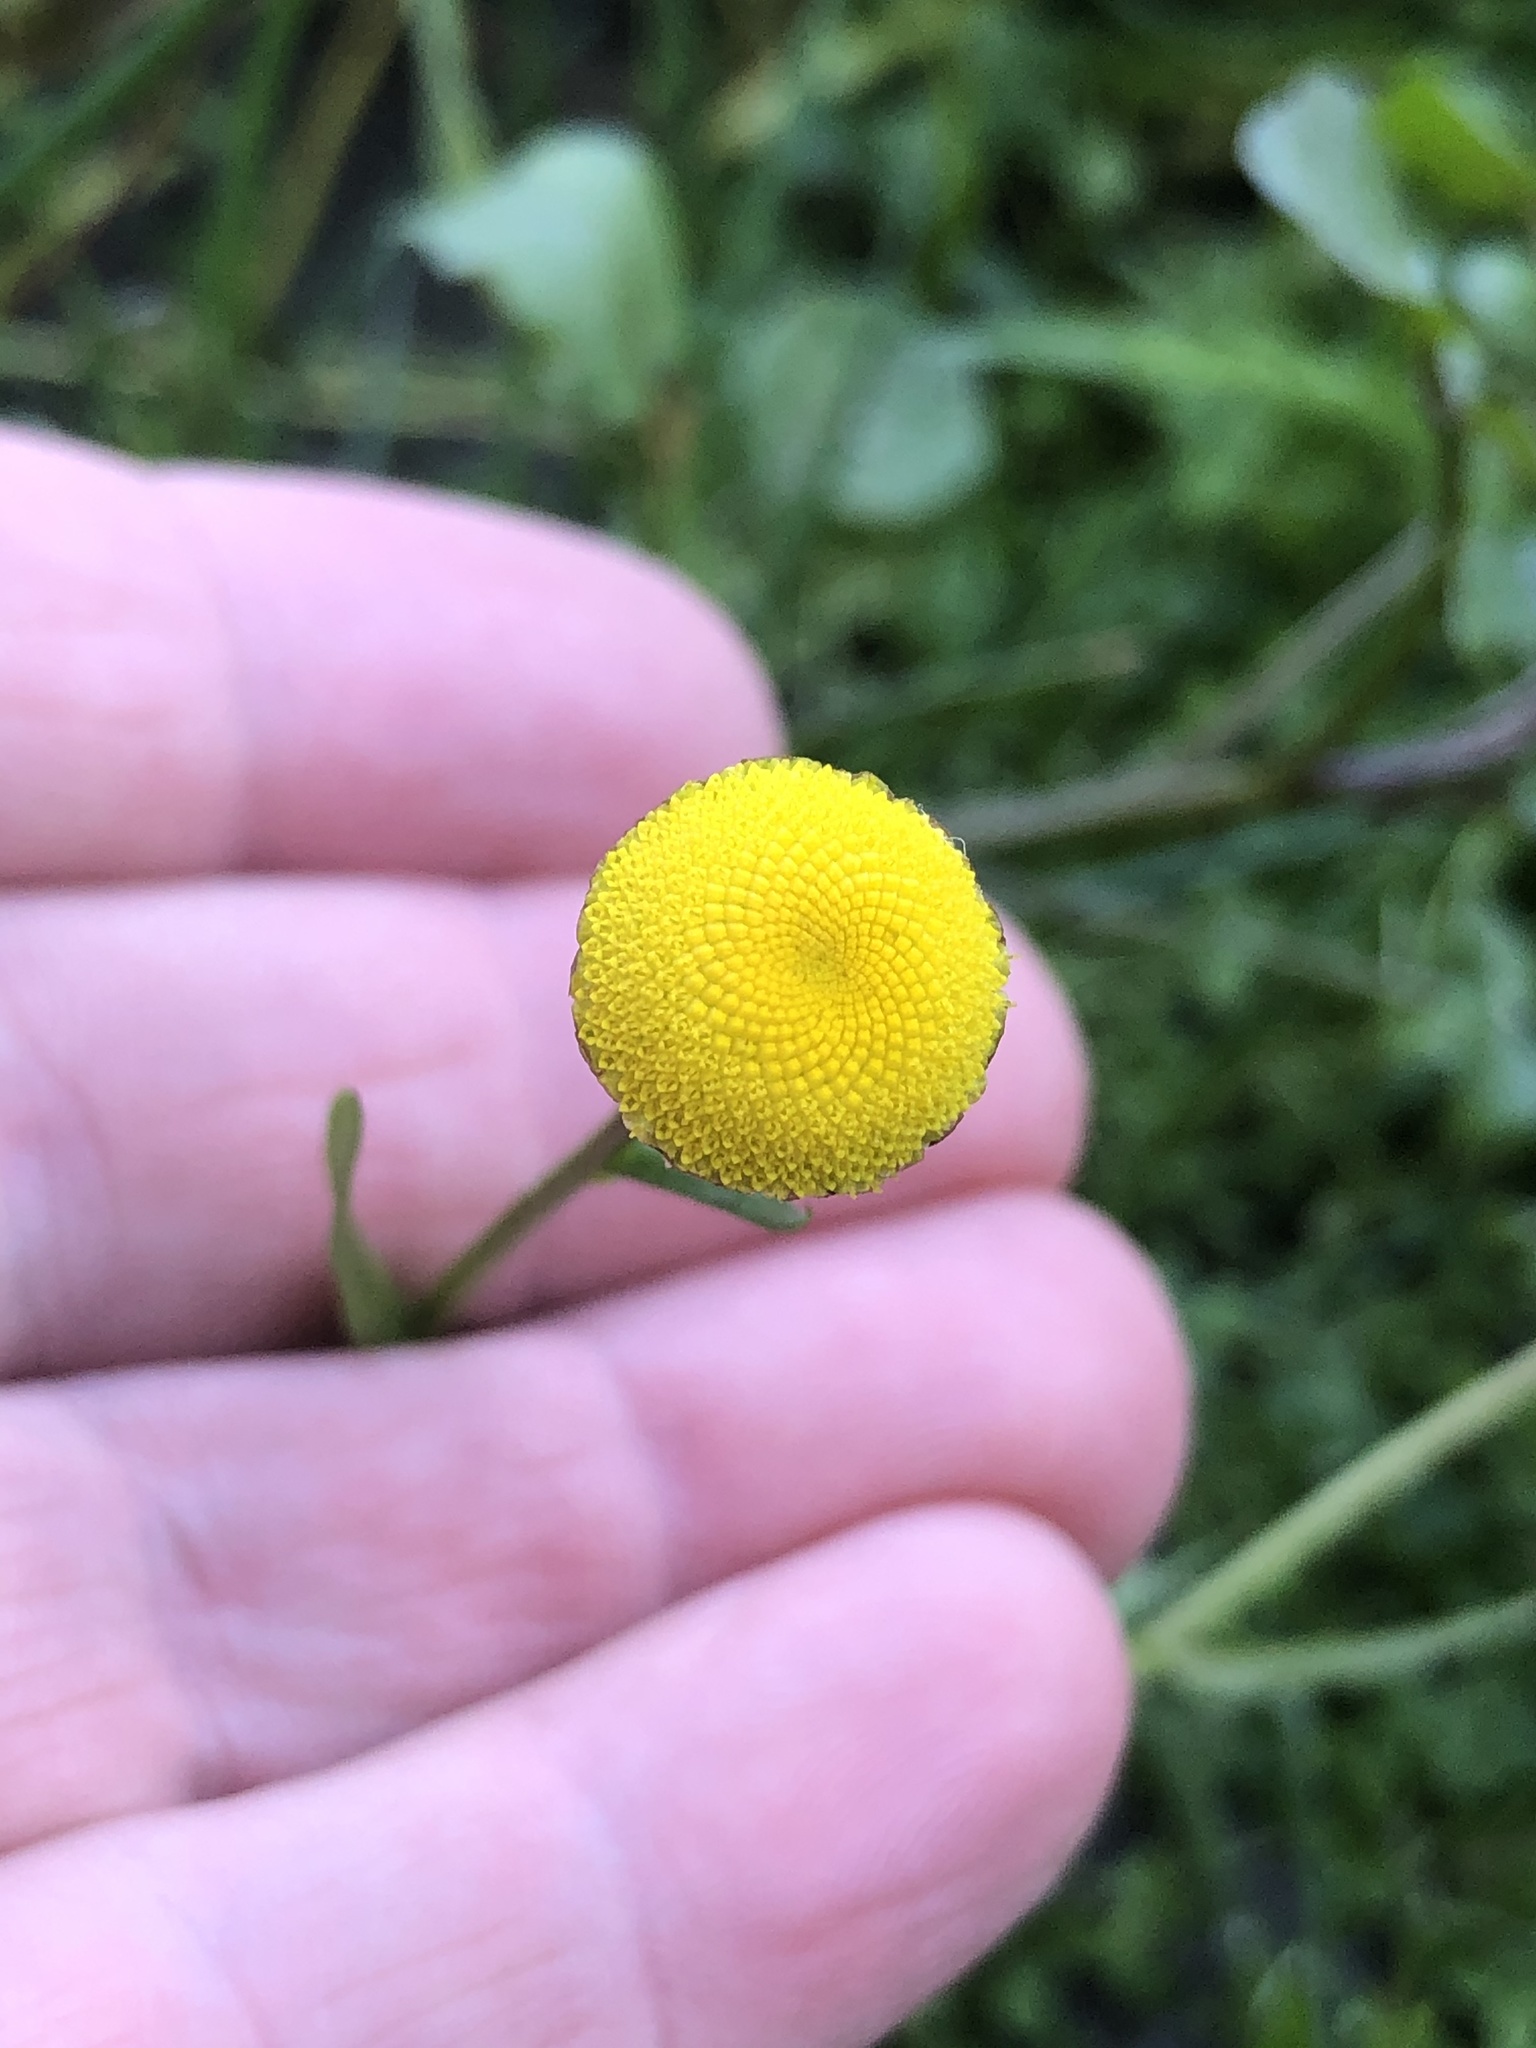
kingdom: Plantae
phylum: Tracheophyta
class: Magnoliopsida
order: Asterales
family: Asteraceae
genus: Cotula
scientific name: Cotula coronopifolia
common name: Buttonweed
